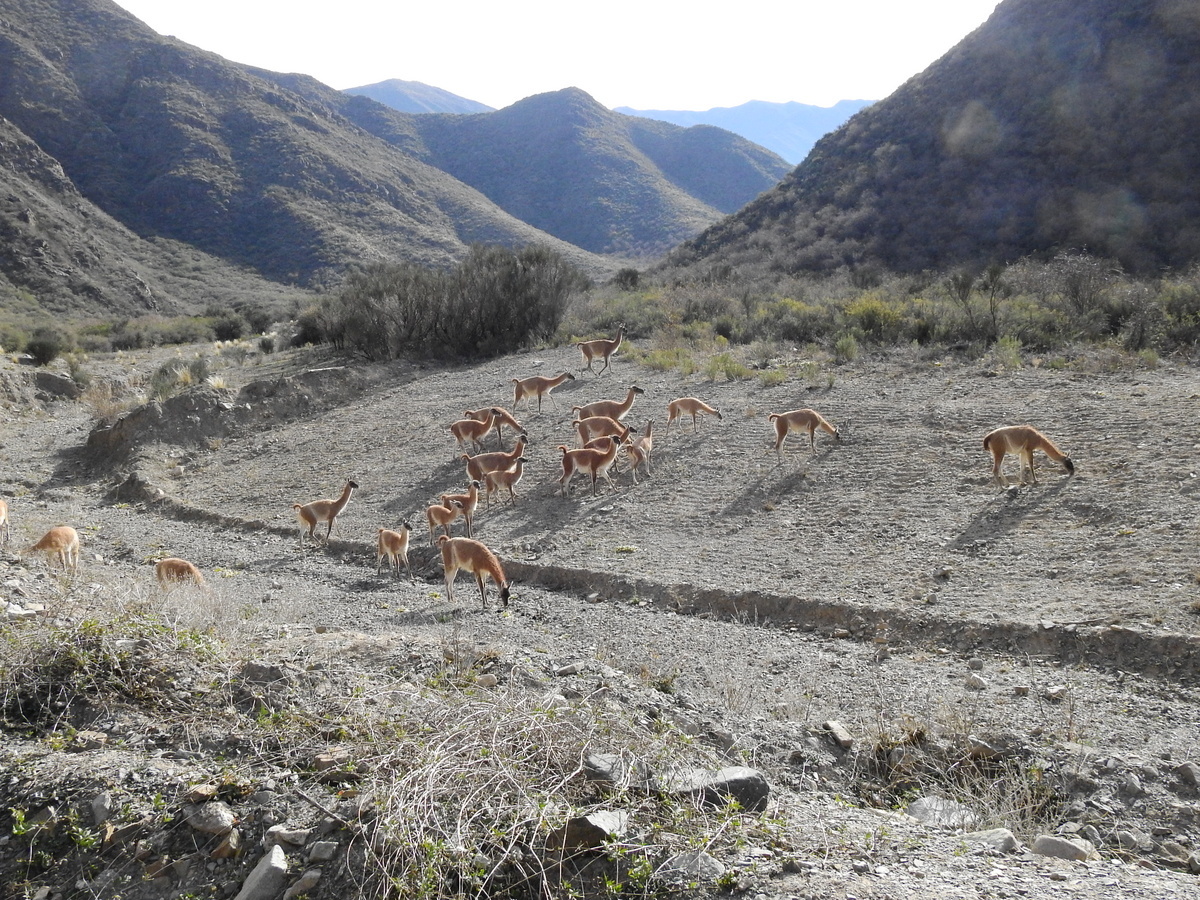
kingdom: Animalia
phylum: Chordata
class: Mammalia
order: Artiodactyla
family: Camelidae
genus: Lama
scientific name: Lama glama
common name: Llama
